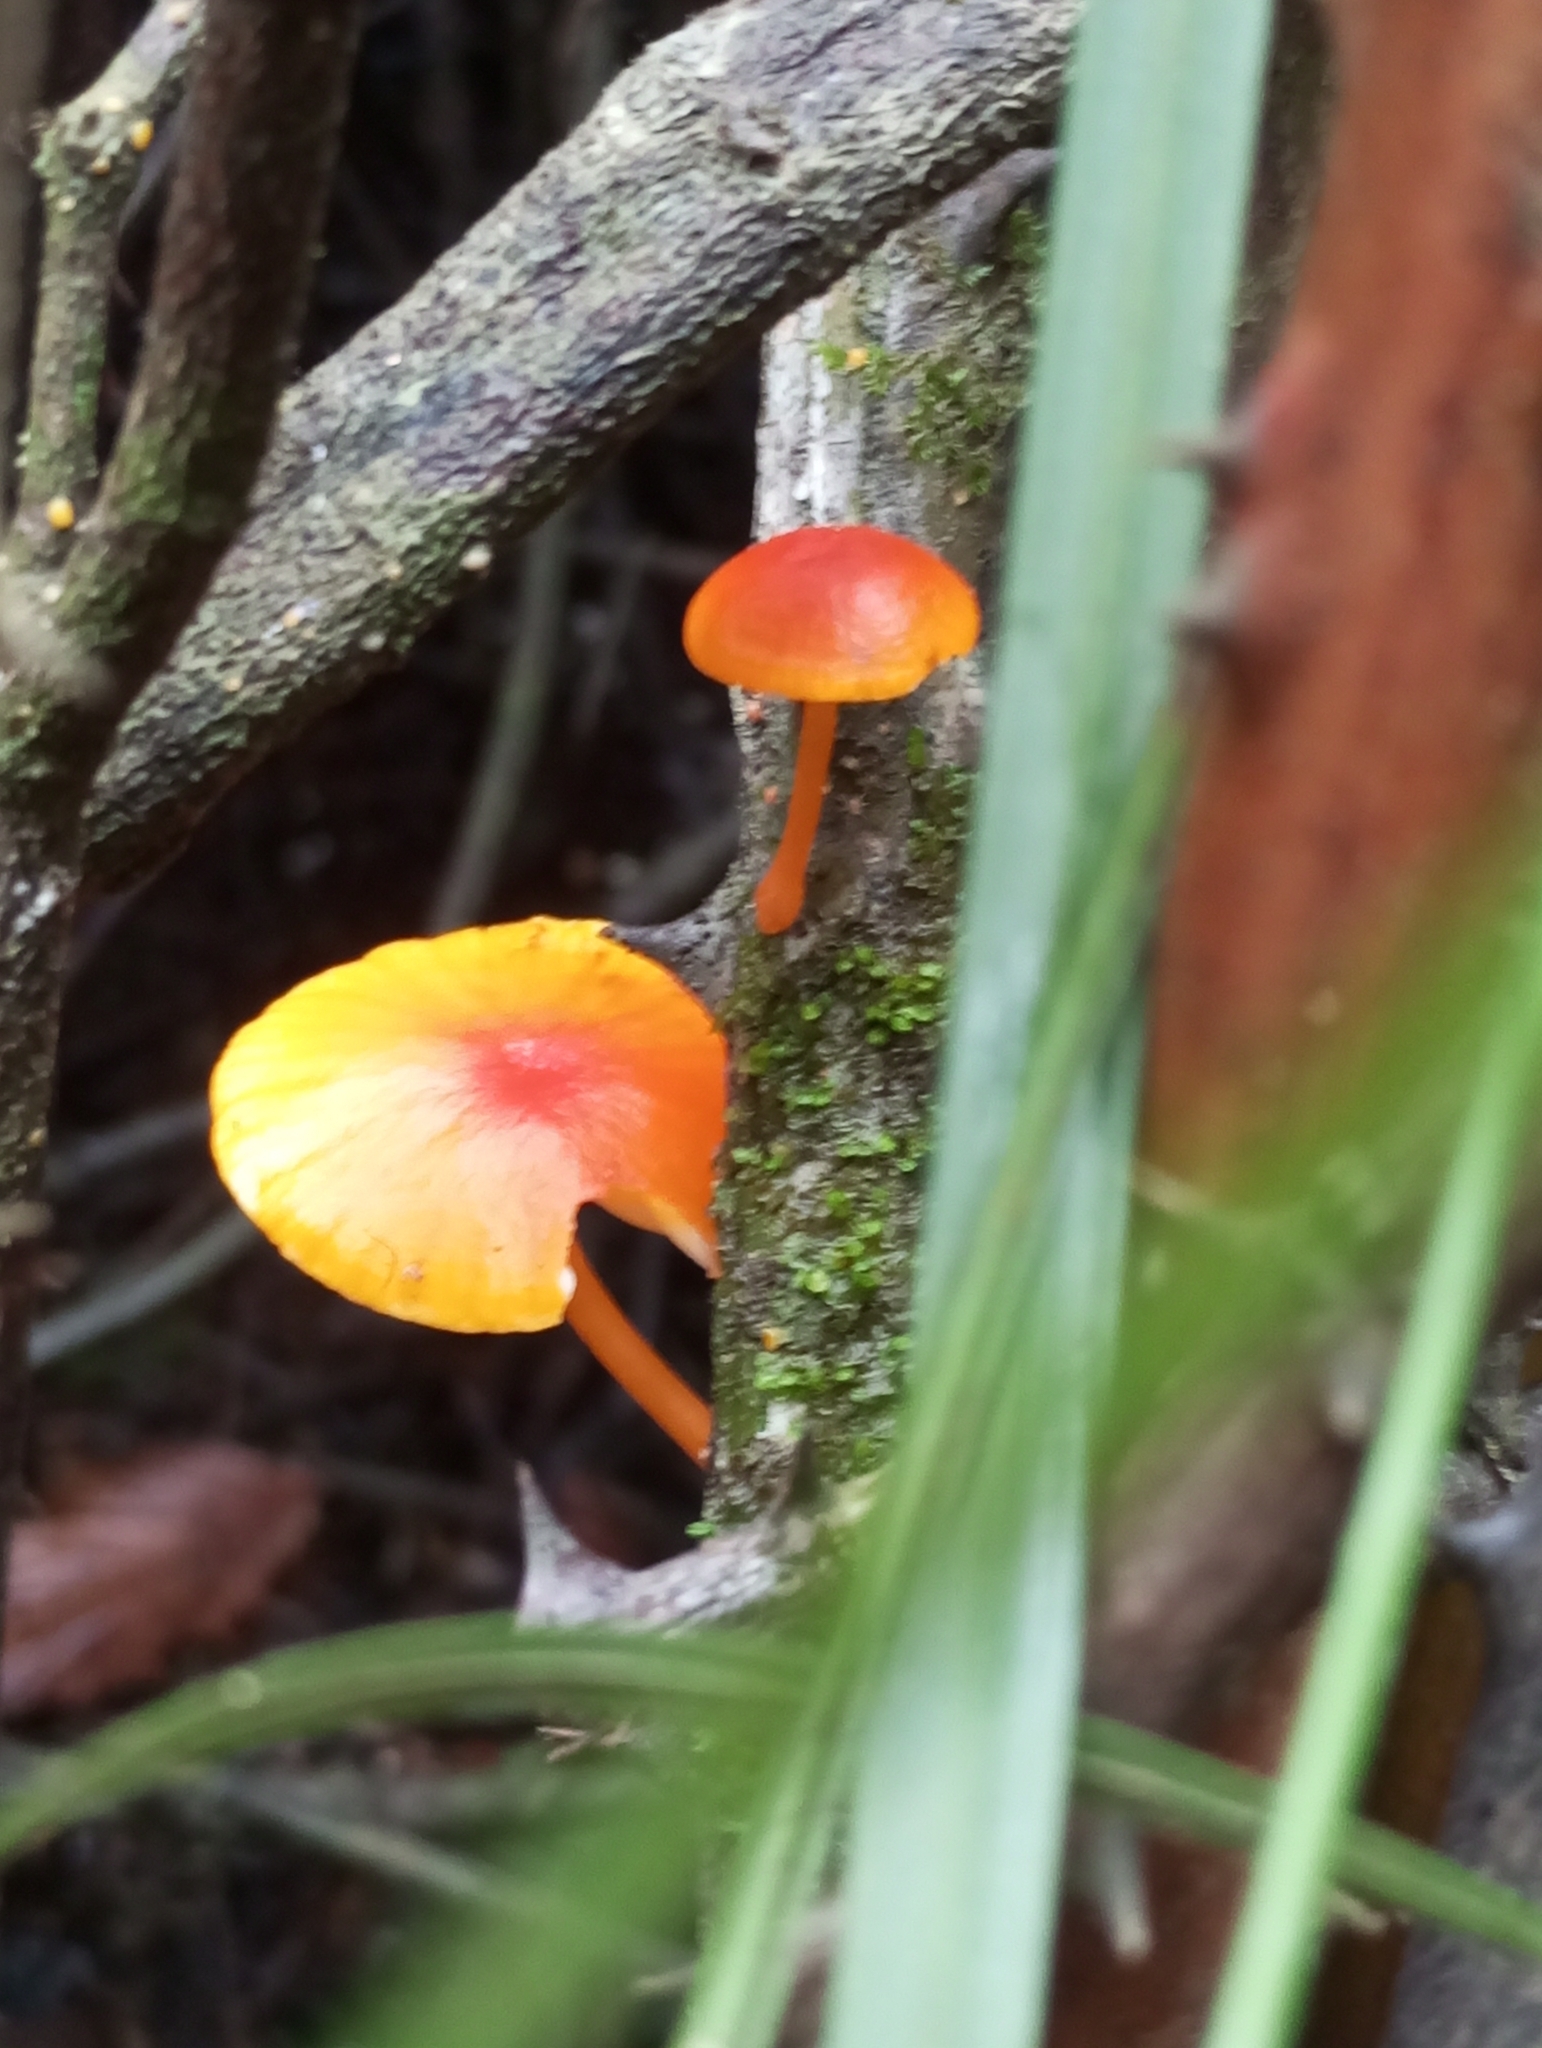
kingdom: Fungi
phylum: Basidiomycota
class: Agaricomycetes
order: Agaricales
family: Physalacriaceae
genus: Cyptotrama
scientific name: Cyptotrama hygrocyboides
